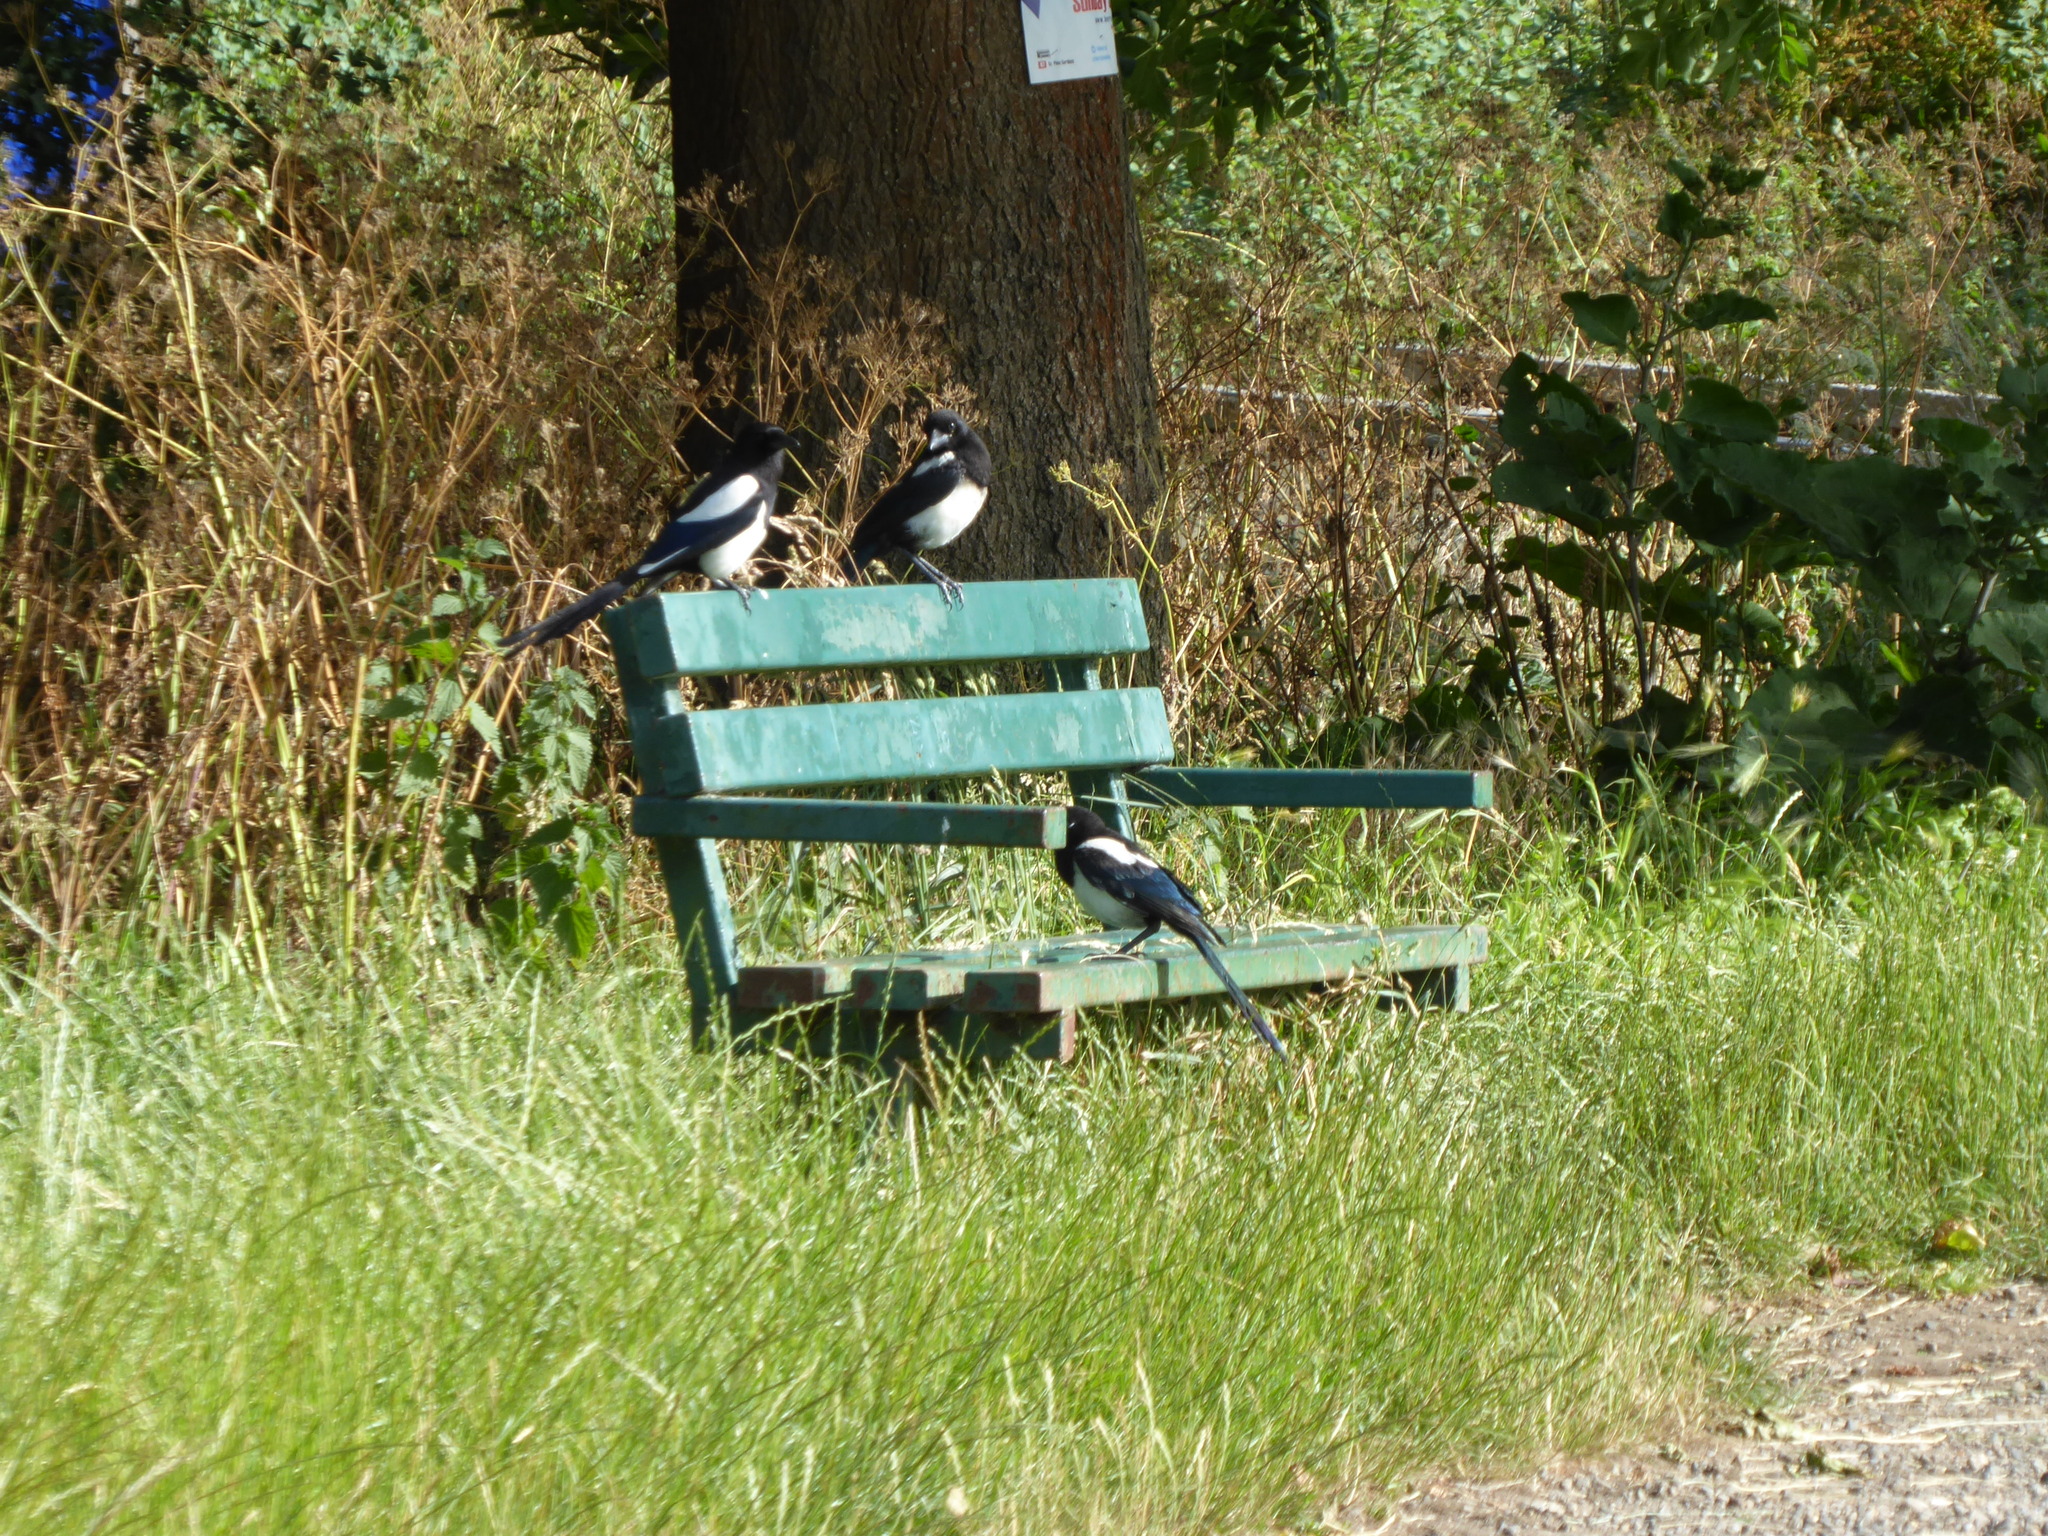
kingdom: Animalia
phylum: Chordata
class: Aves
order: Passeriformes
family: Corvidae
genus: Pica
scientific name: Pica pica
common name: Eurasian magpie
